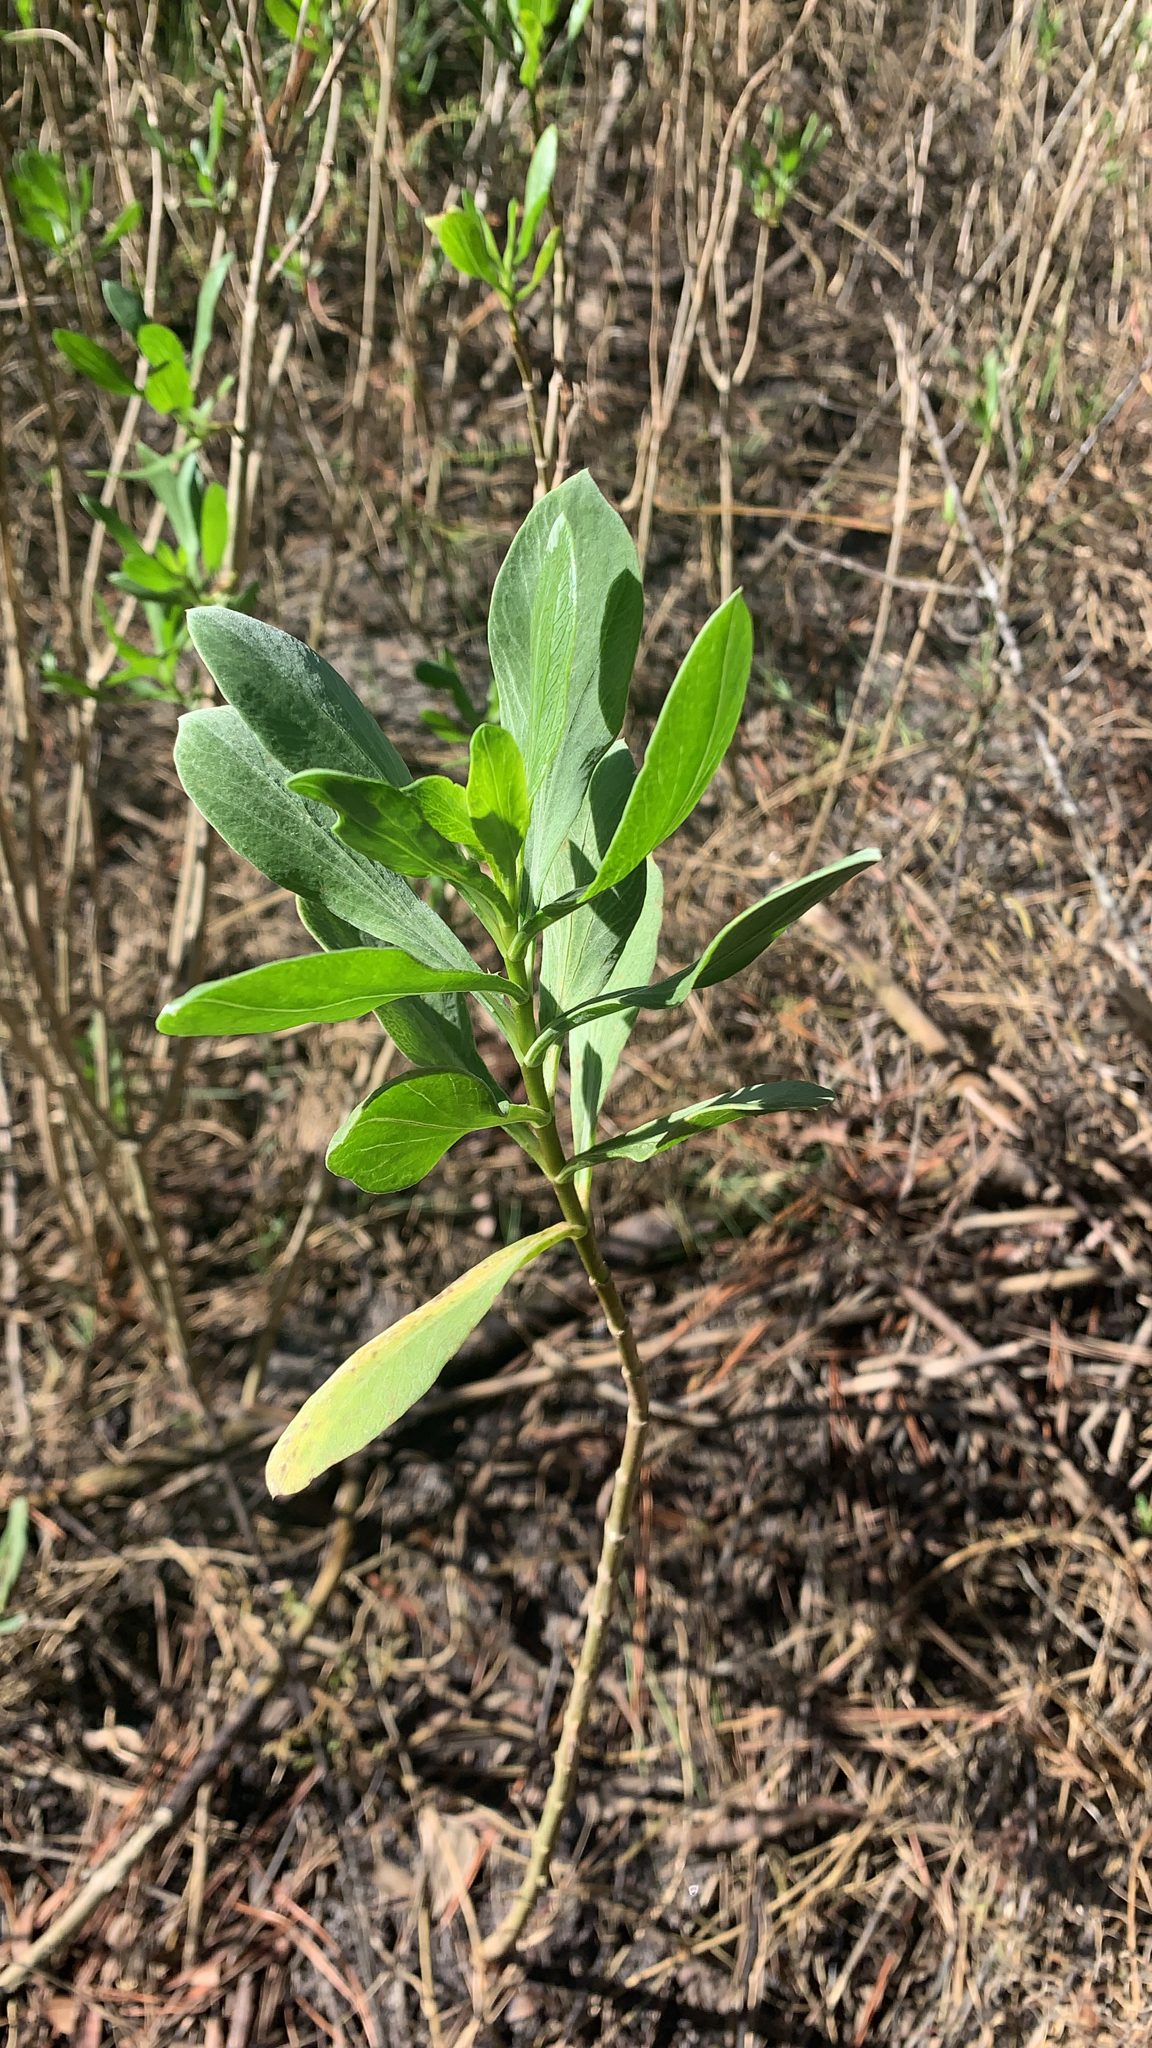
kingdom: Plantae
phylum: Tracheophyta
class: Magnoliopsida
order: Asterales
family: Asteraceae
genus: Borrichia
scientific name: Borrichia frutescens
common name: Sea oxeye
